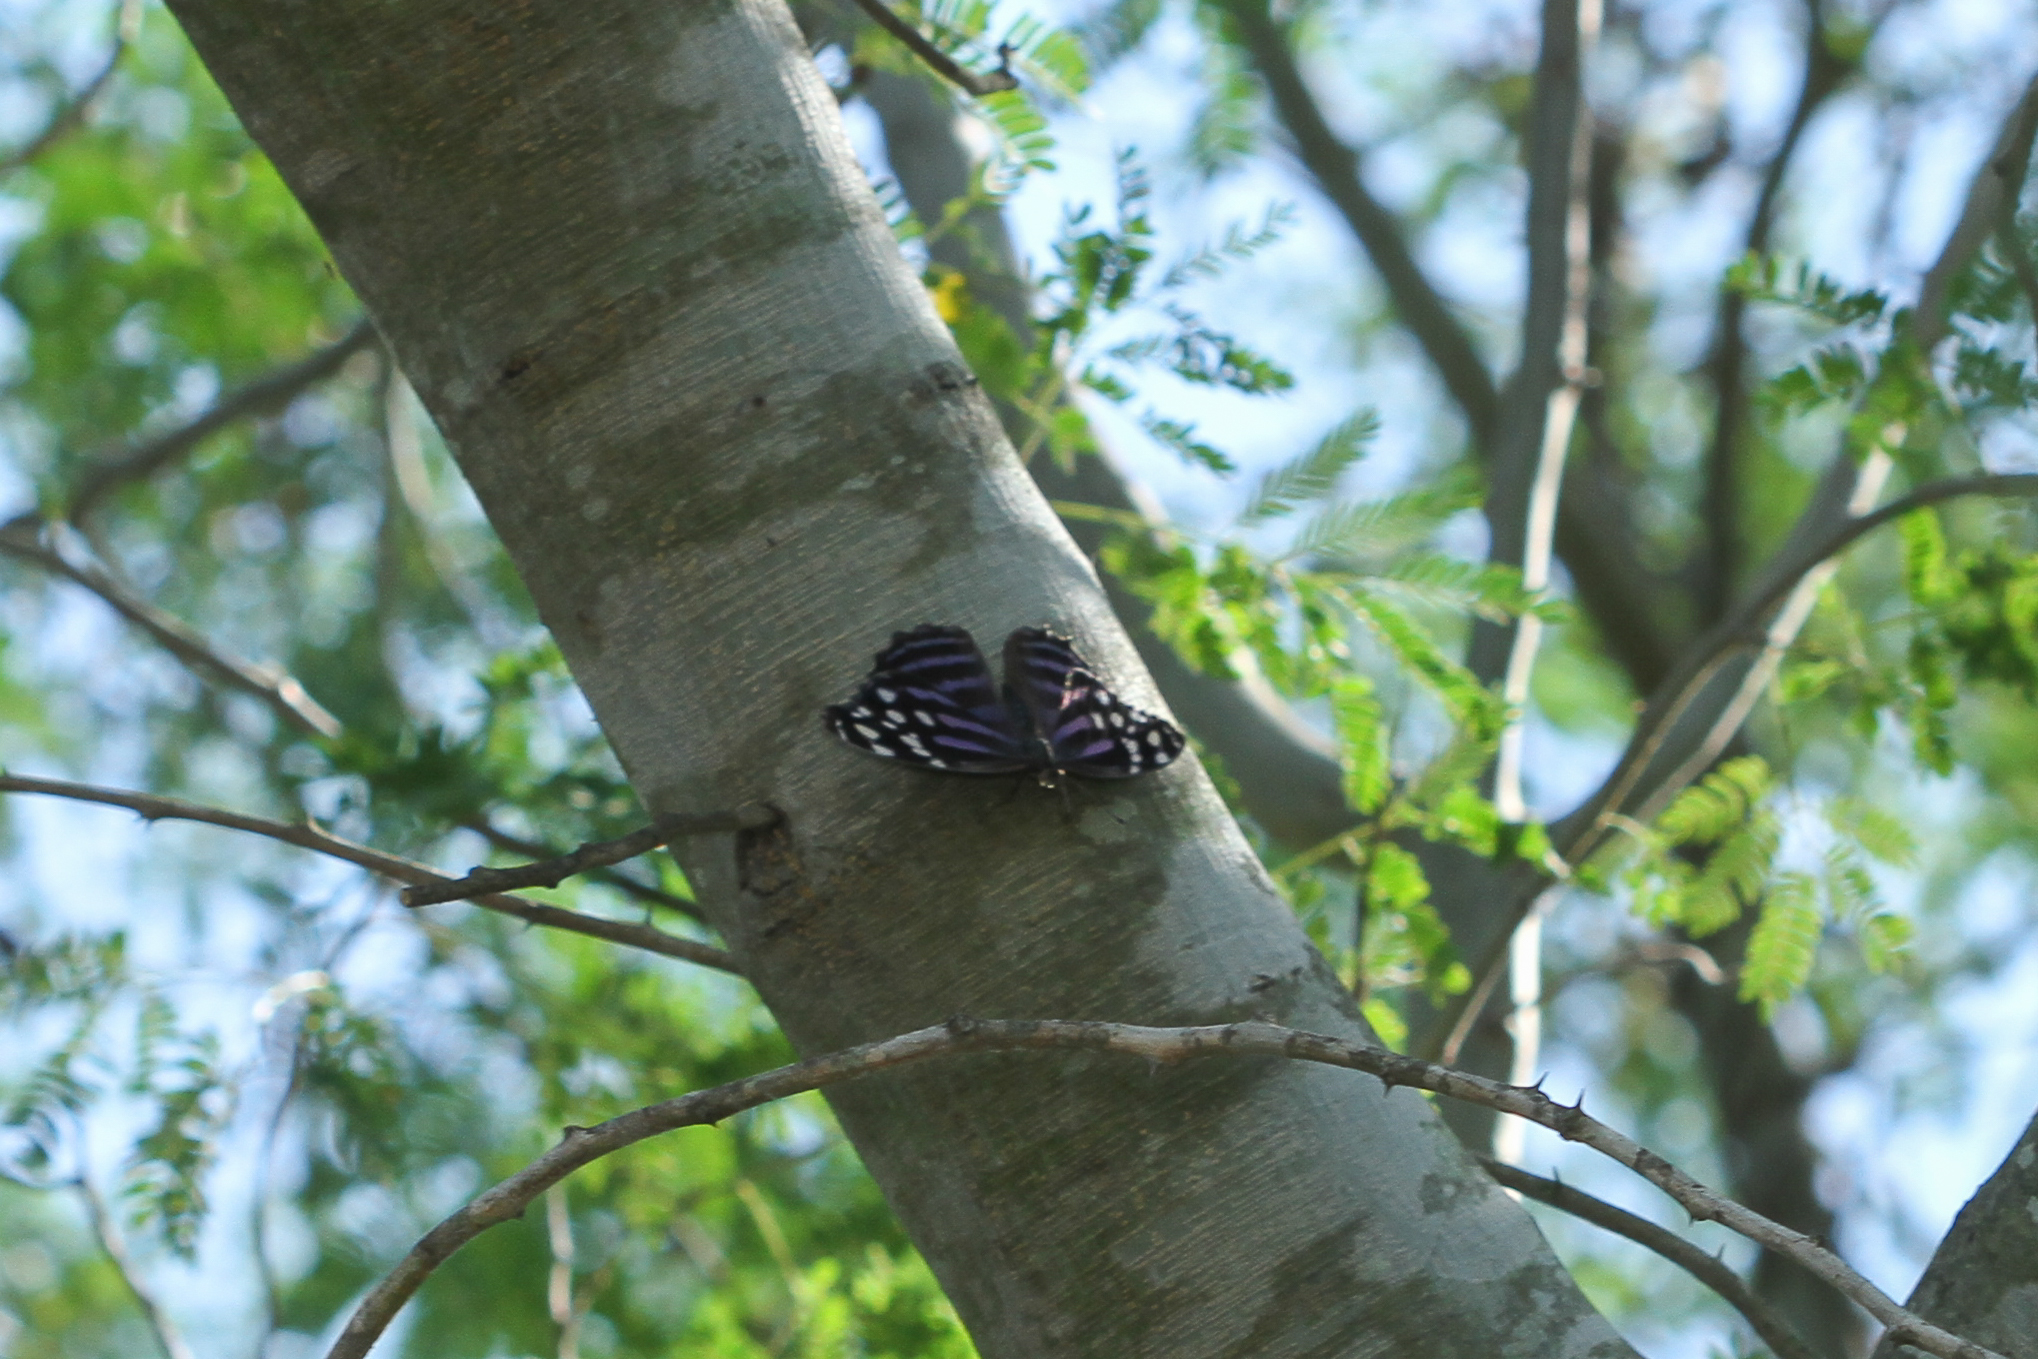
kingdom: Animalia
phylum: Arthropoda
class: Insecta
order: Lepidoptera
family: Nymphalidae
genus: Myscelia
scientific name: Myscelia ethusa
